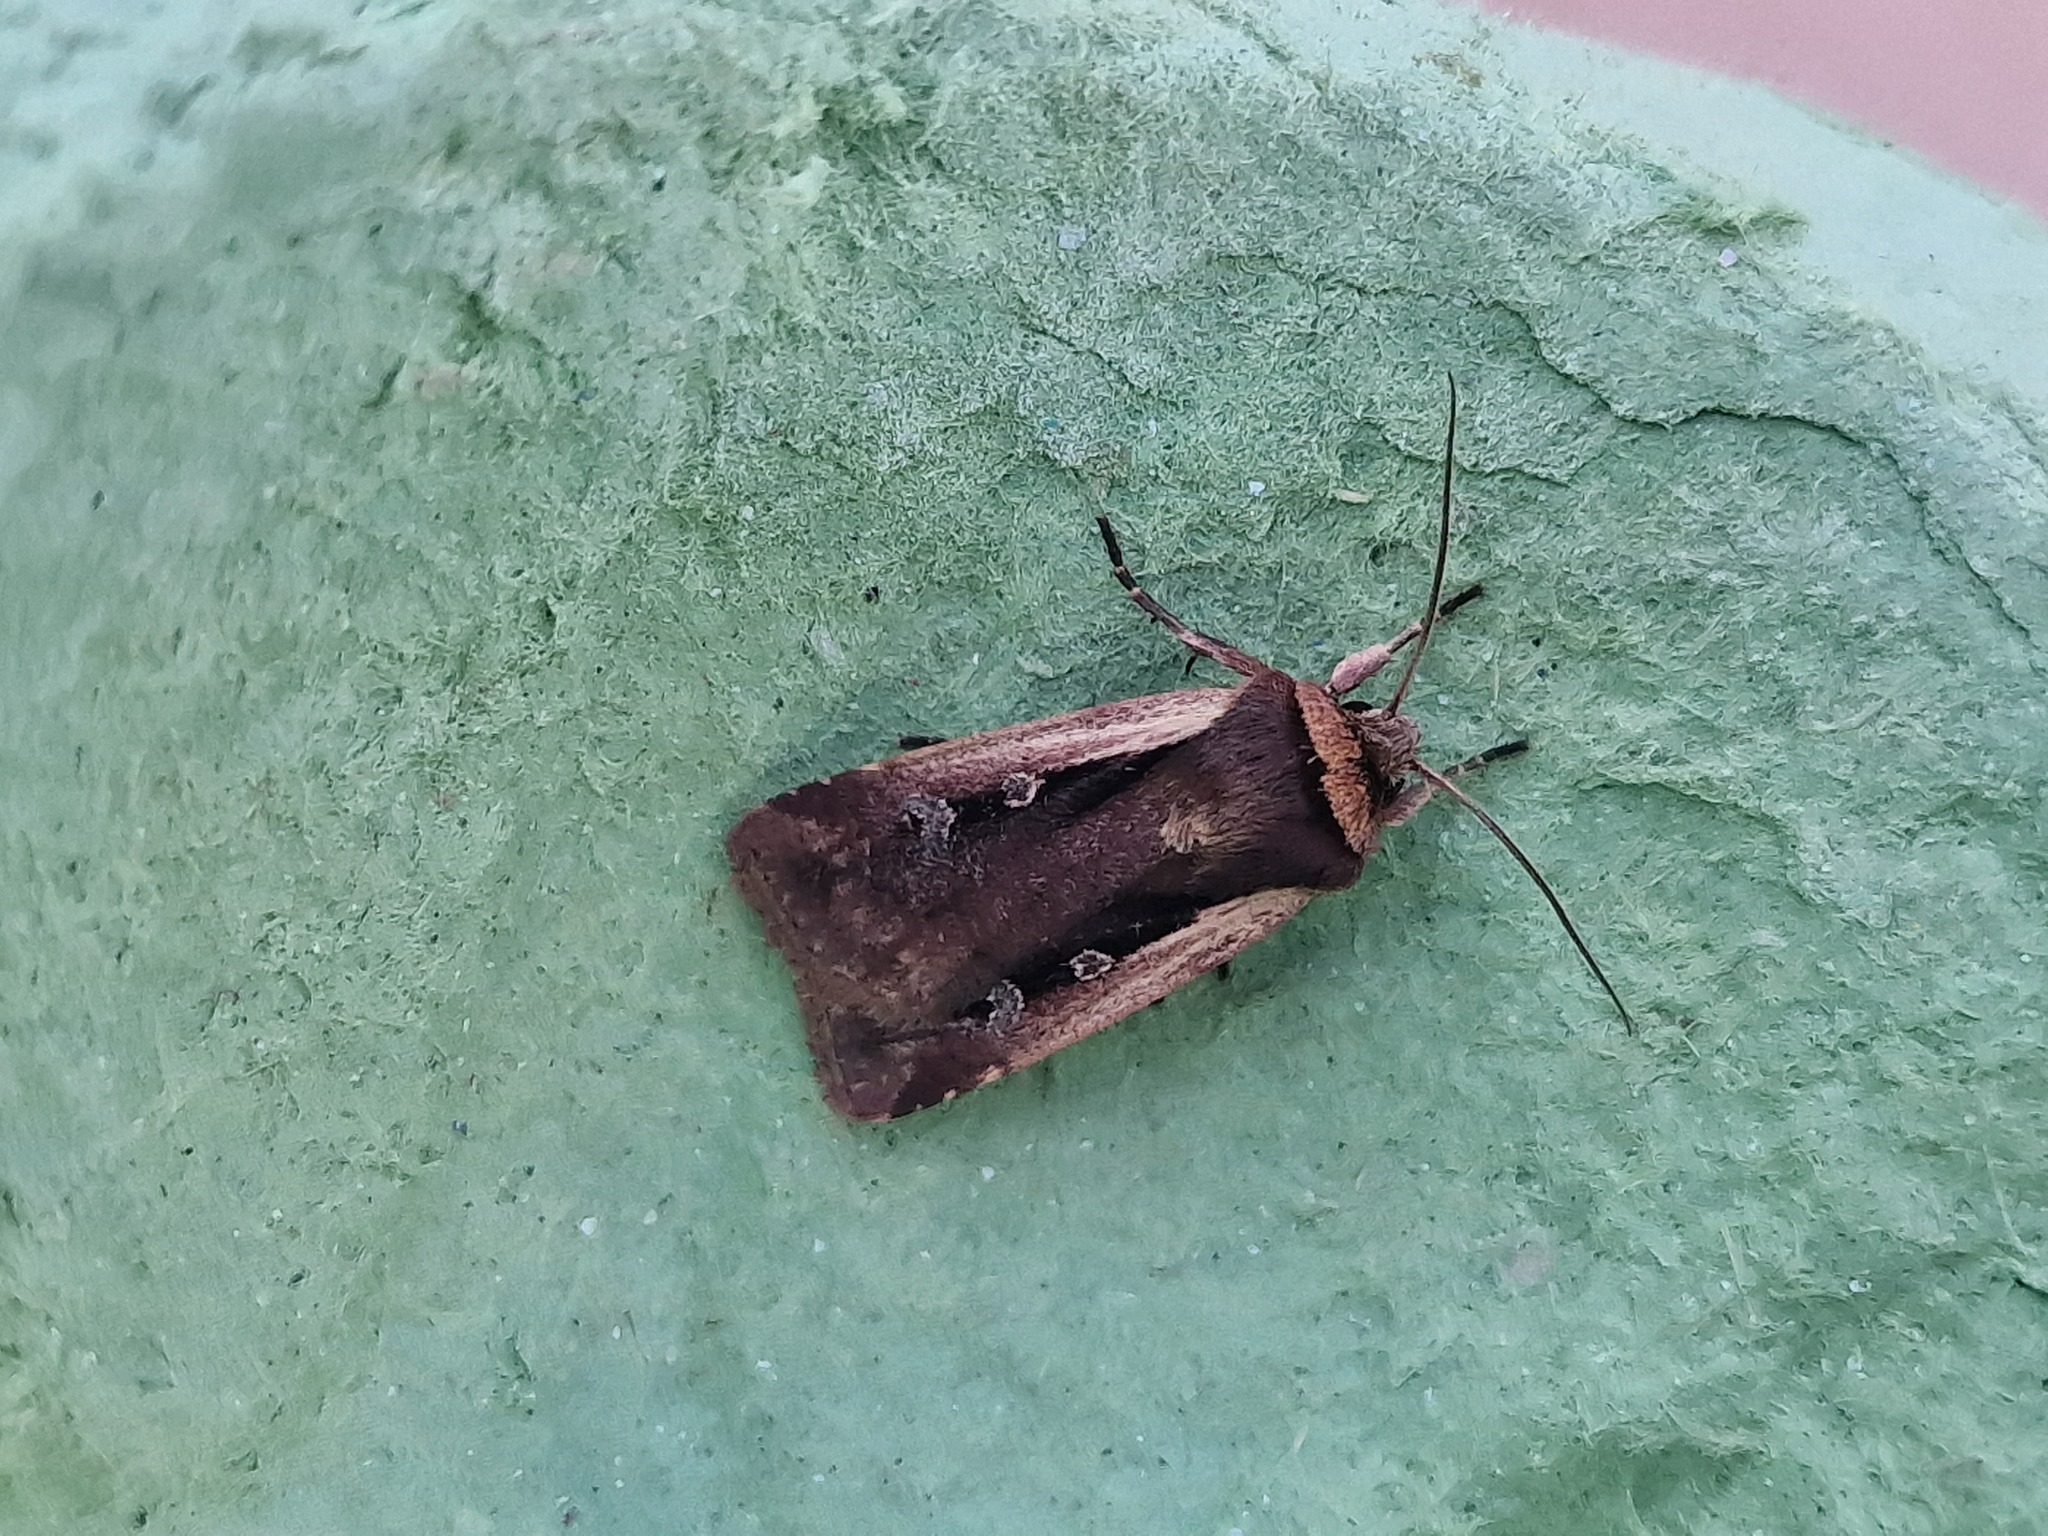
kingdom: Animalia
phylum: Arthropoda
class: Insecta
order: Lepidoptera
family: Noctuidae
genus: Ochropleura
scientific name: Ochropleura plecta
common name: Flame shoulder
